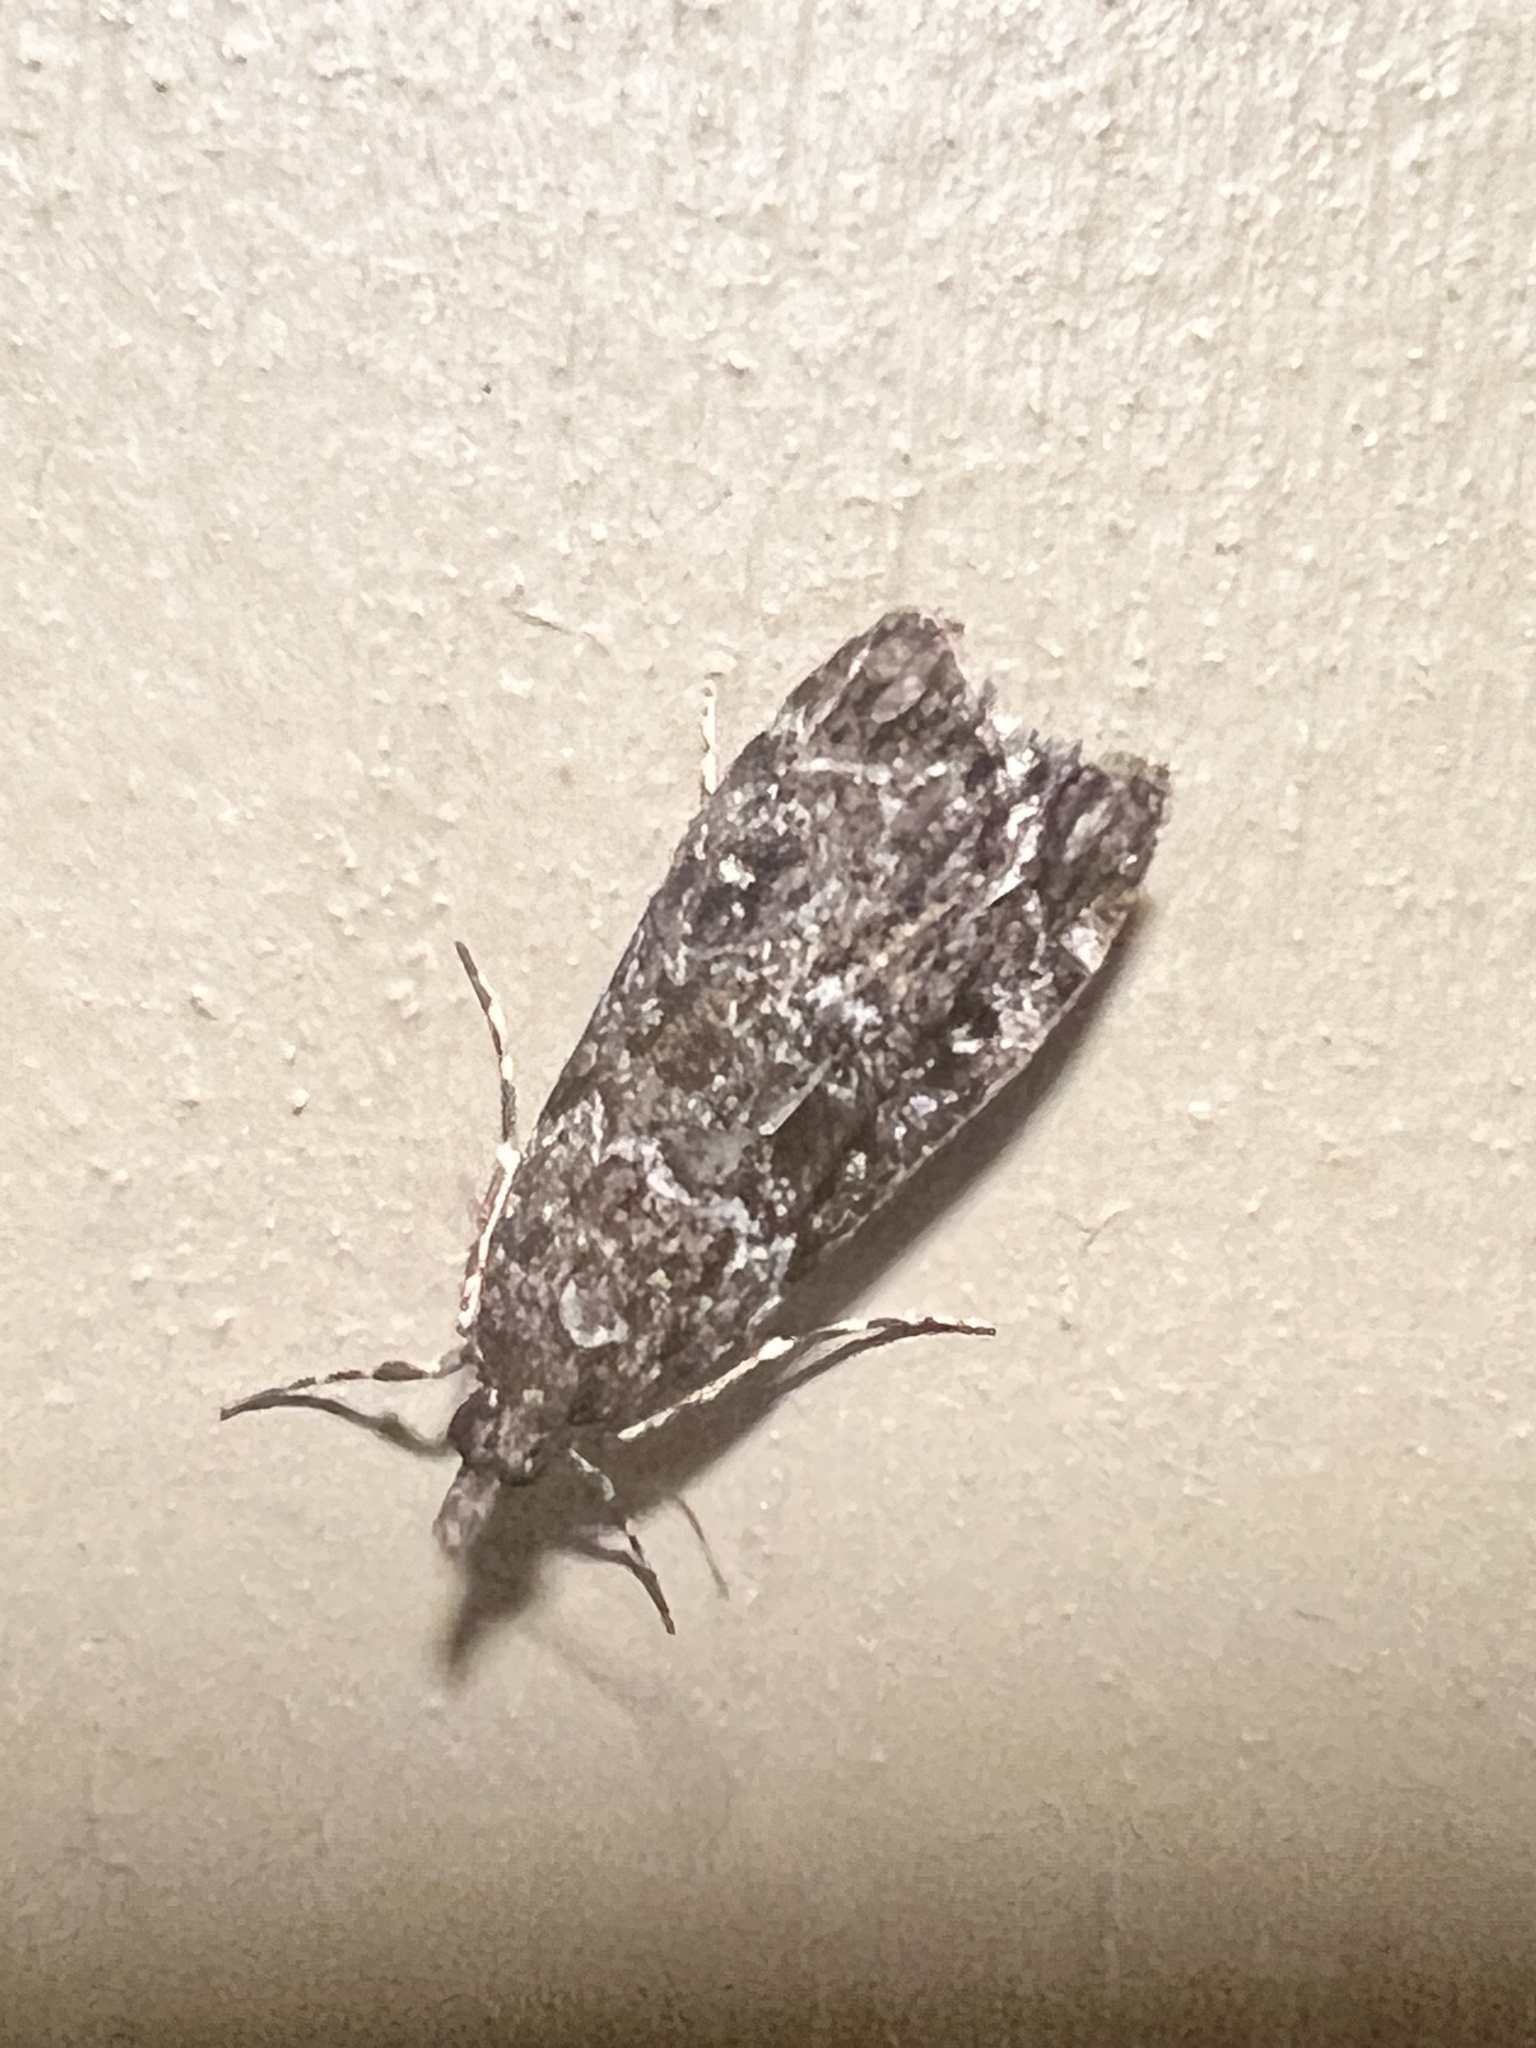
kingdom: Animalia
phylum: Arthropoda
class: Insecta
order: Lepidoptera
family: Crambidae
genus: Eudonia
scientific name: Eudonia philerga
